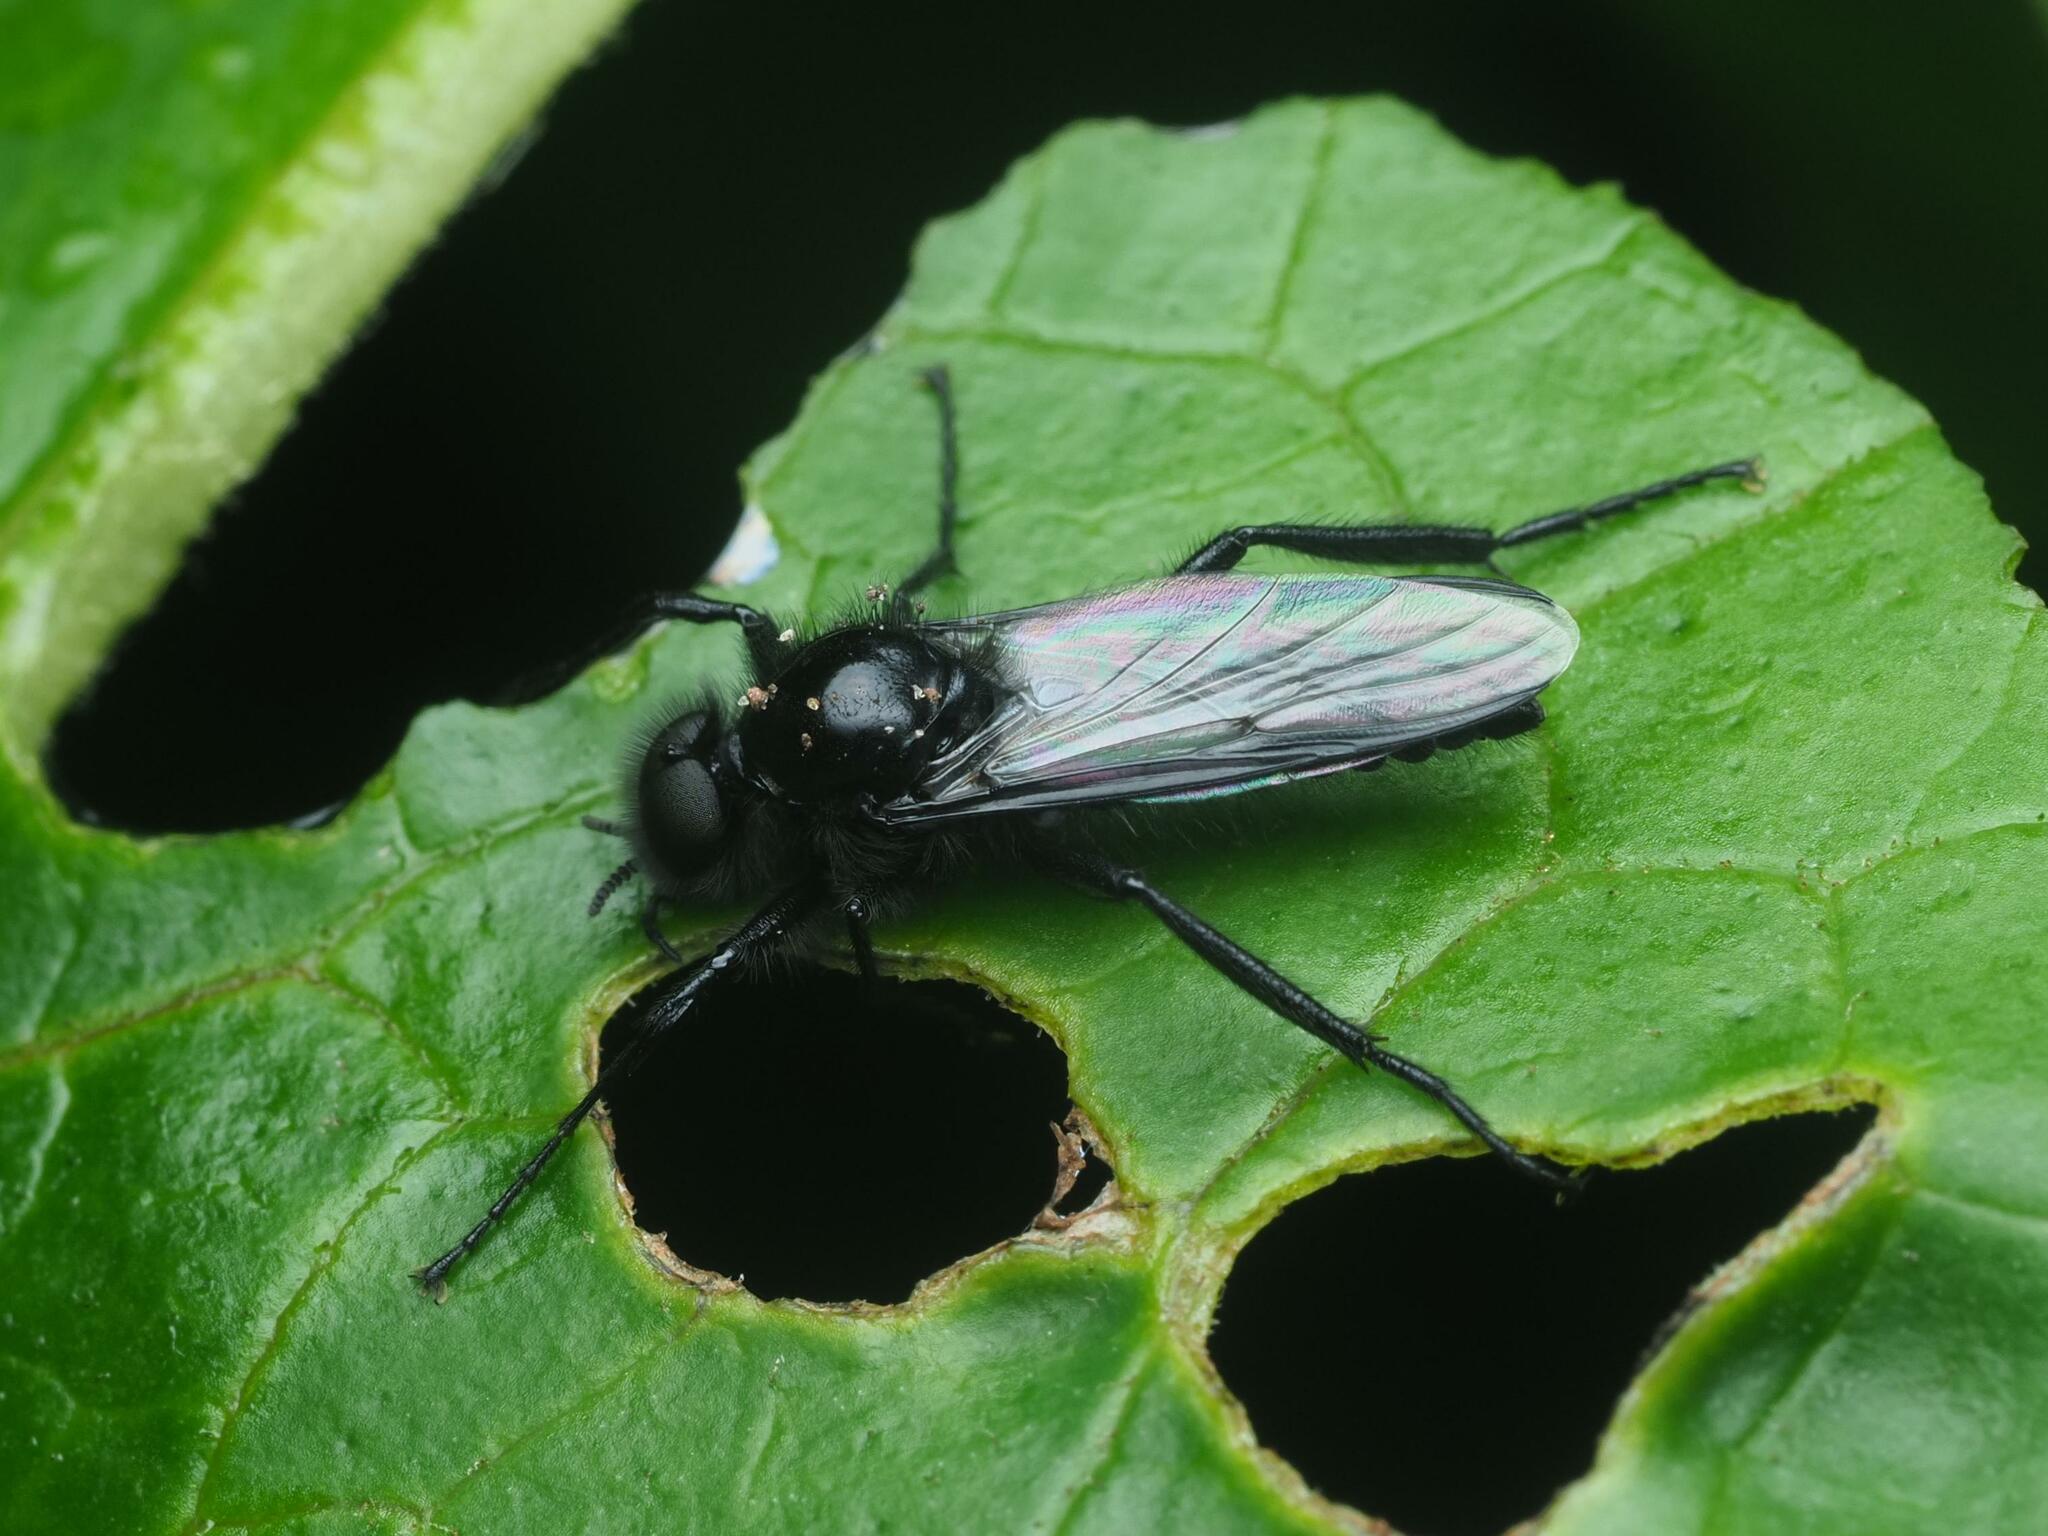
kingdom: Animalia
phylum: Arthropoda
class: Insecta
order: Diptera
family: Bibionidae
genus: Bibio
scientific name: Bibio marci
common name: St marks fly
